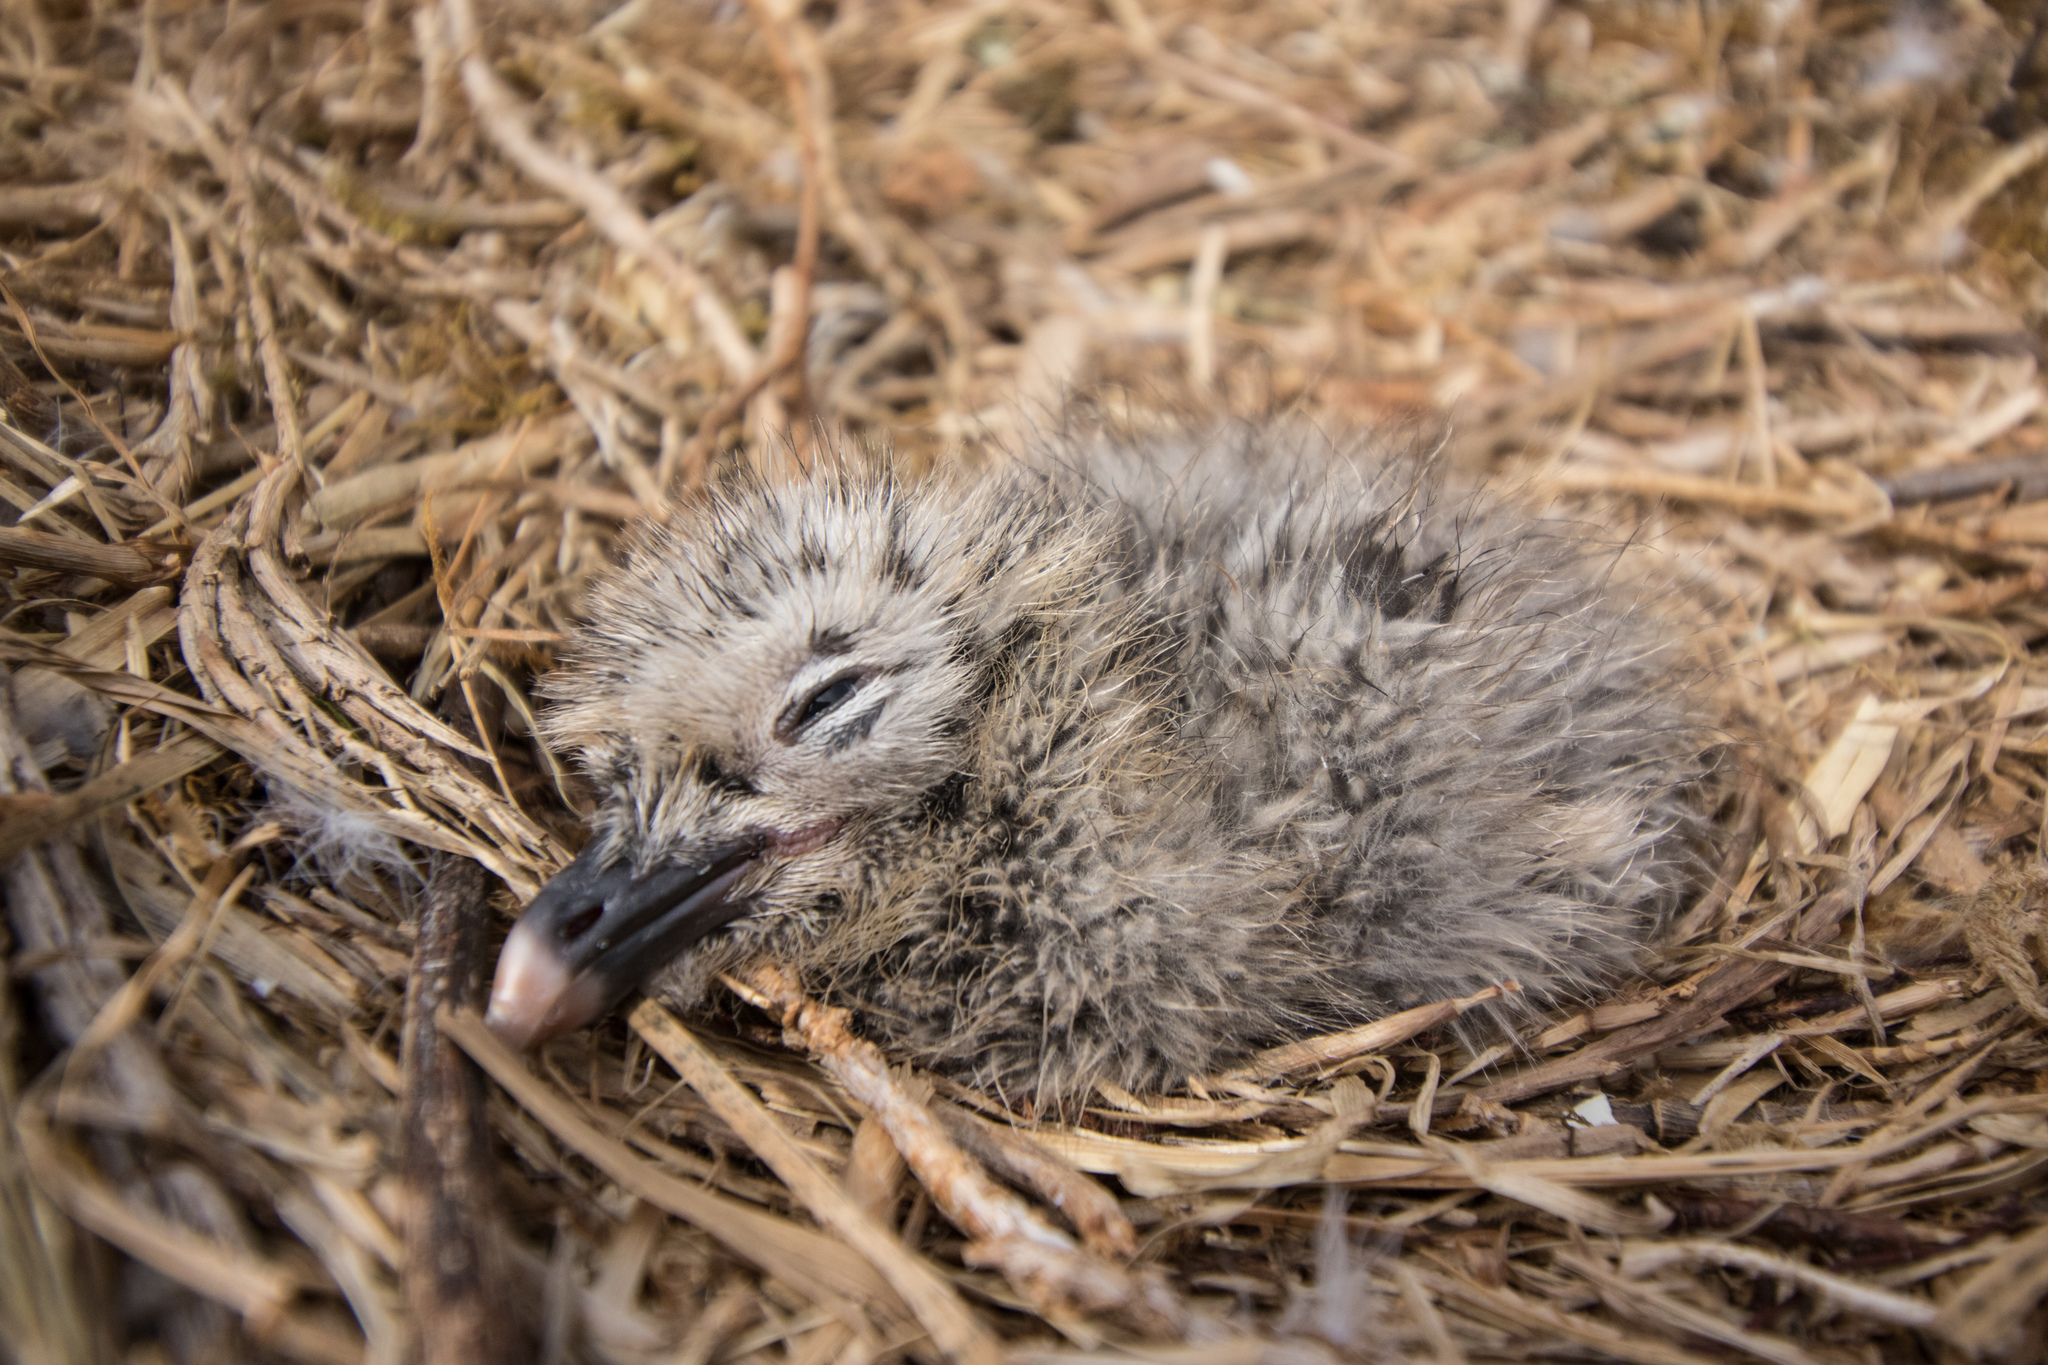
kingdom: Animalia
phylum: Chordata
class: Aves
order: Charadriiformes
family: Laridae
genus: Larus
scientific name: Larus dominicanus
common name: Kelp gull
